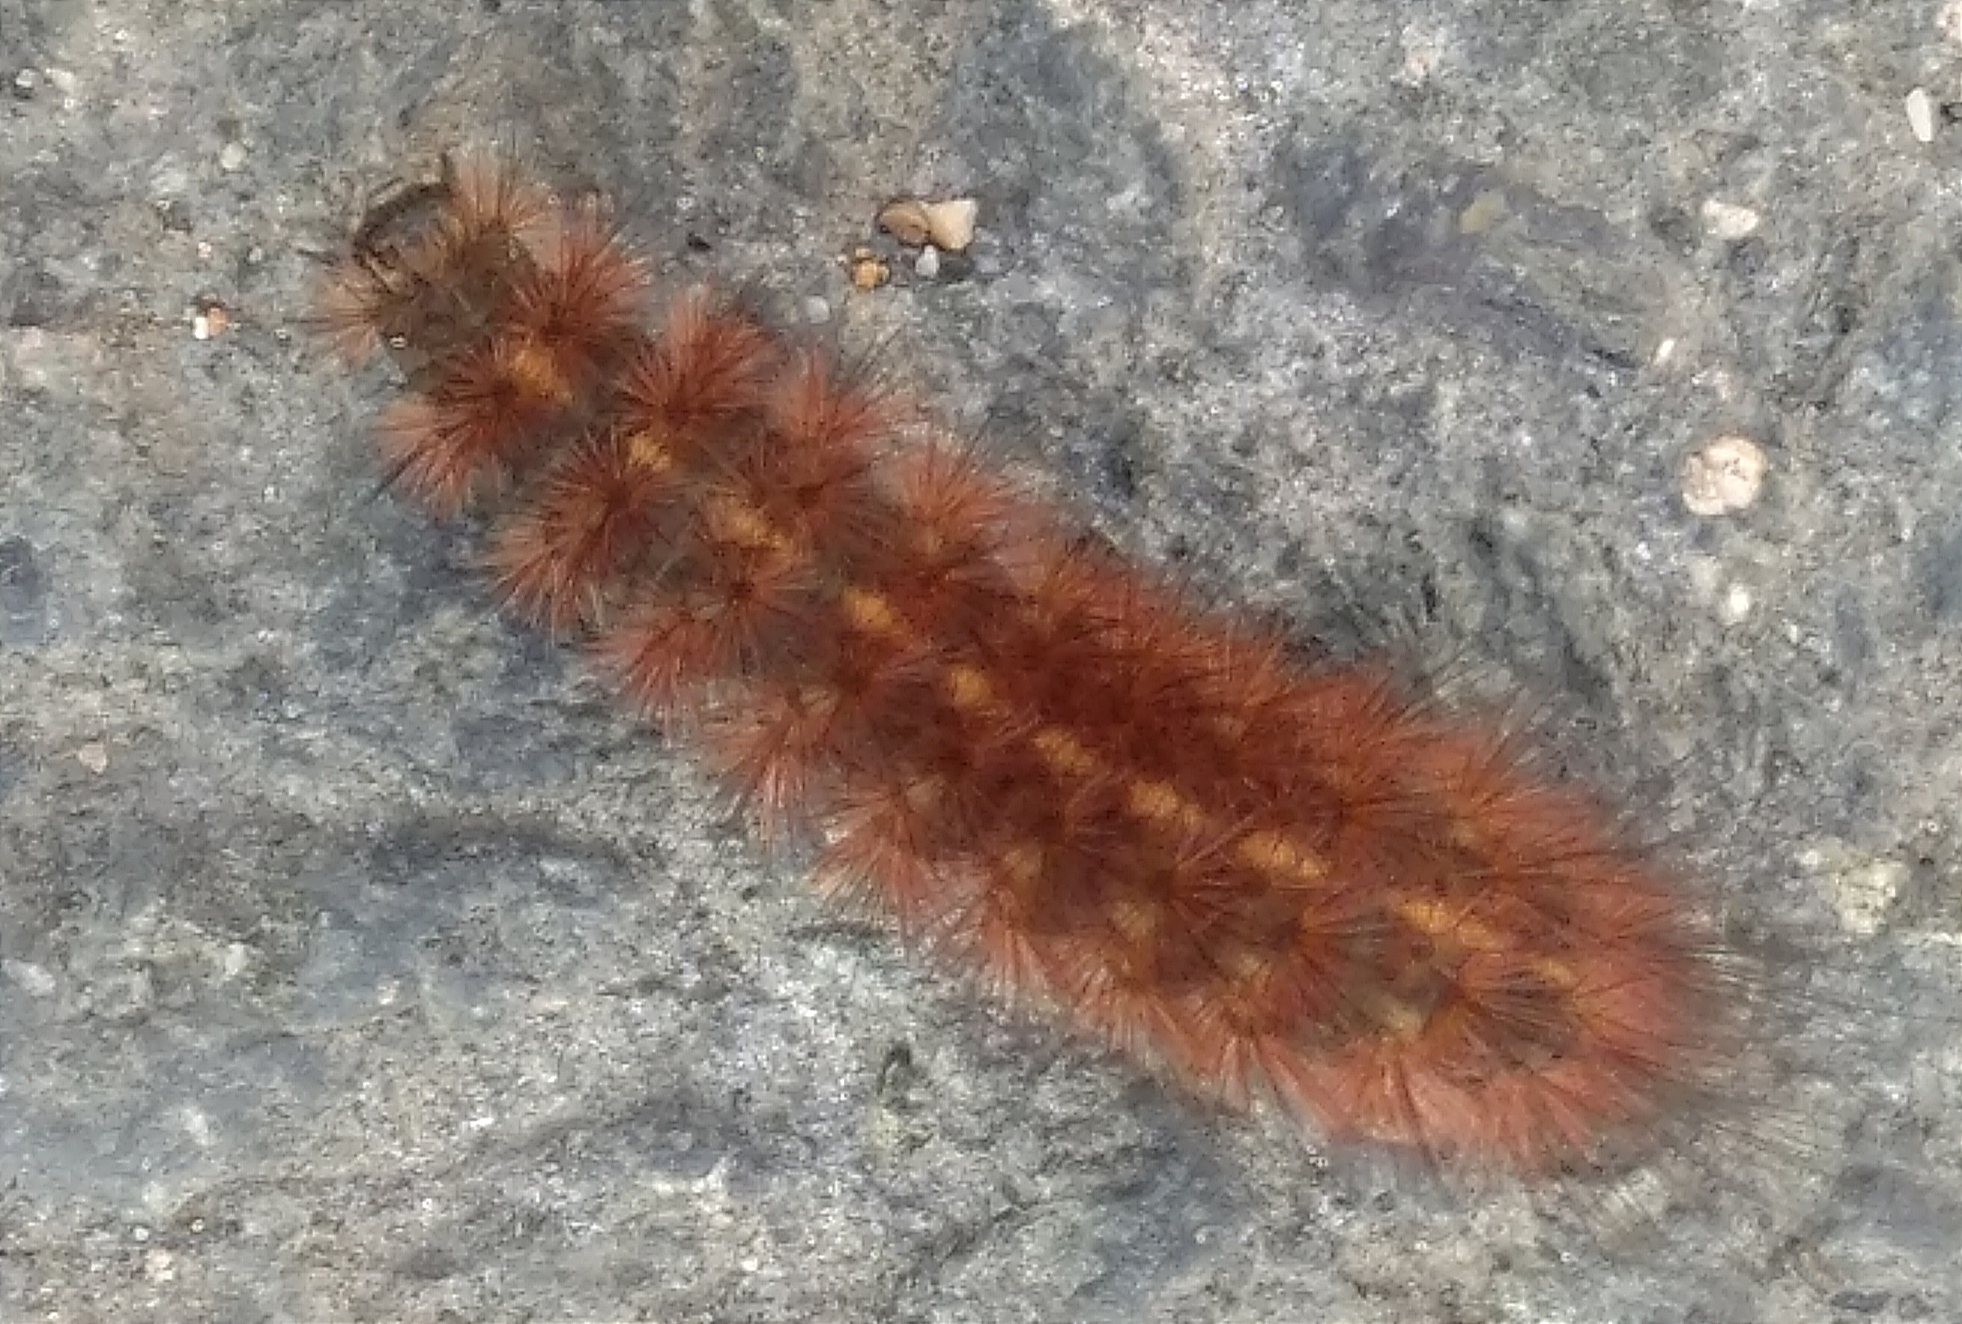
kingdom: Animalia
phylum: Arthropoda
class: Insecta
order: Lepidoptera
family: Erebidae
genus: Phragmatobia
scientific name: Phragmatobia fuliginosa
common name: Ruby tiger
